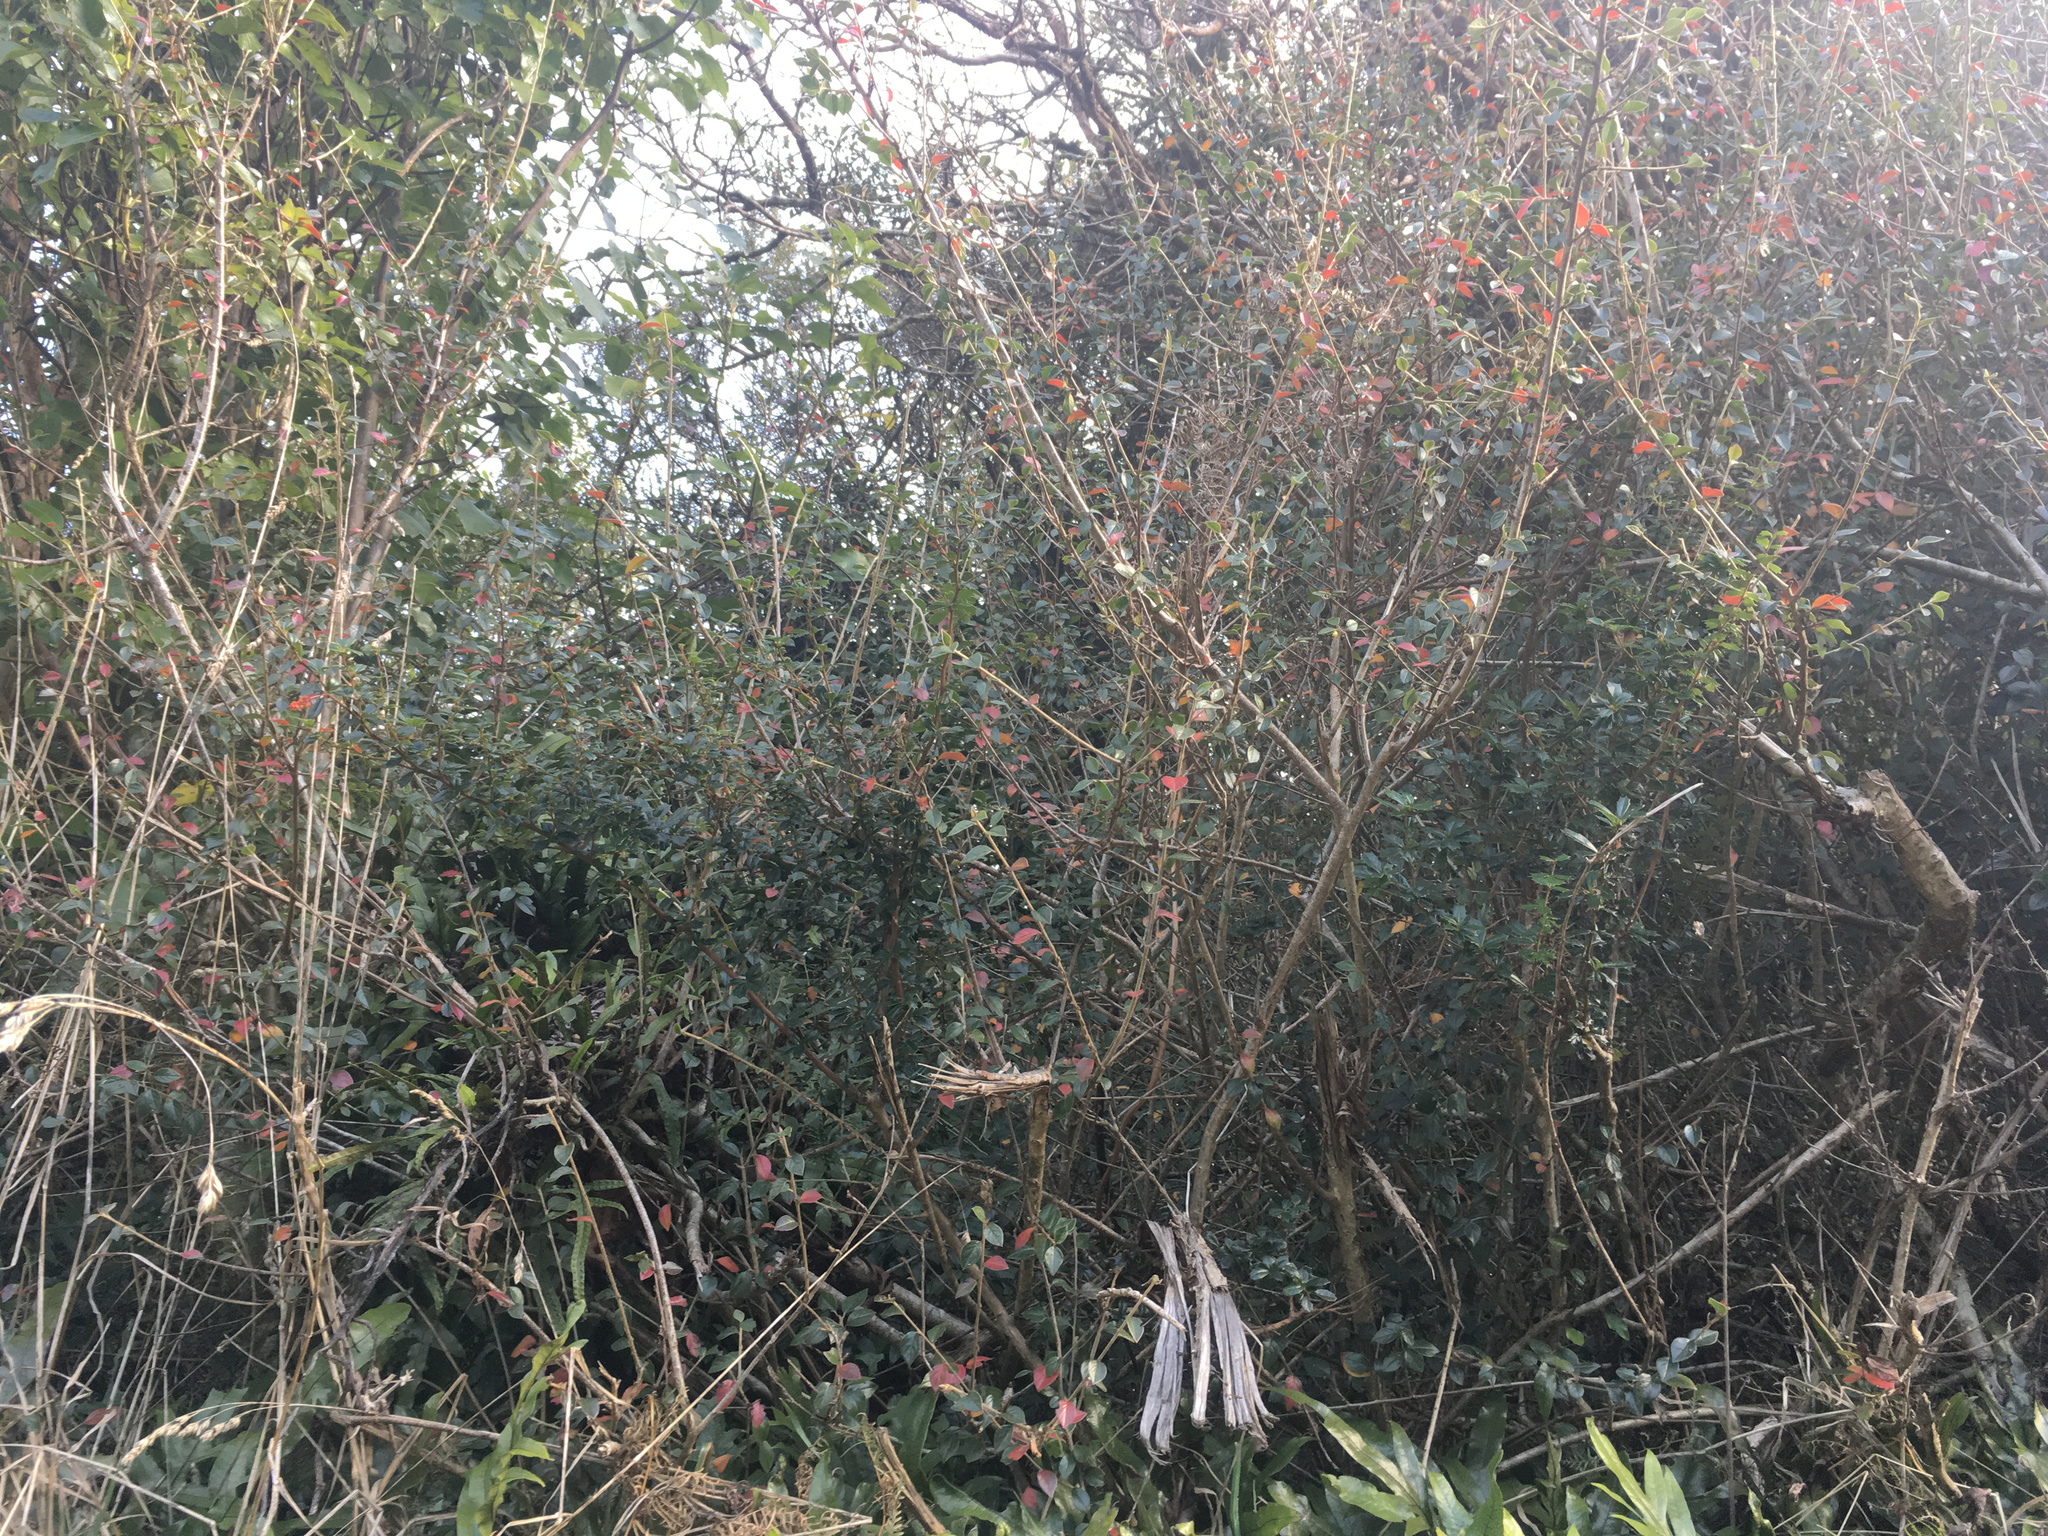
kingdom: Plantae
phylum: Tracheophyta
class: Magnoliopsida
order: Ranunculales
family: Berberidaceae
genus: Berberis
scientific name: Berberis darwinii
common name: Darwin's barberry
